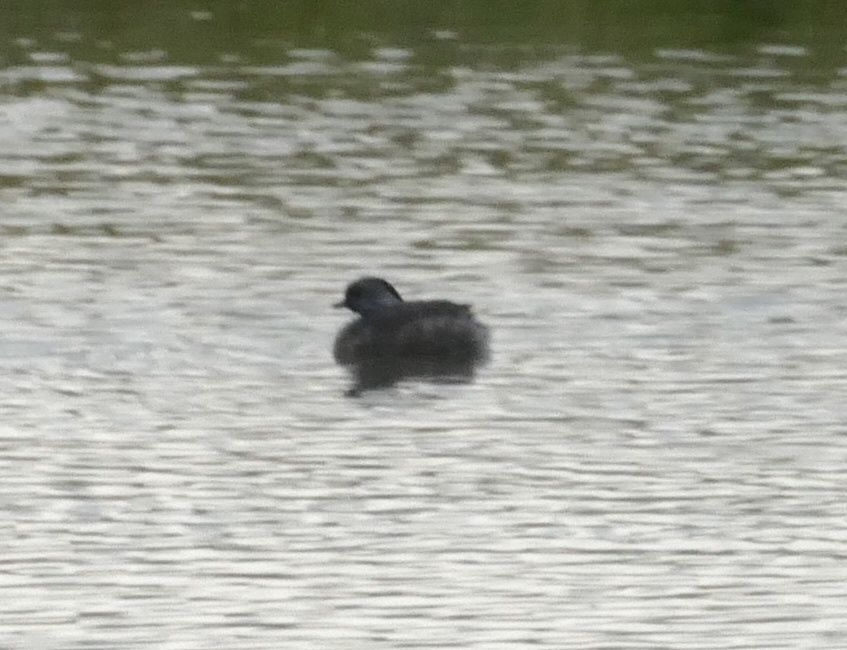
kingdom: Animalia
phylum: Chordata
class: Aves
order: Podicipediformes
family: Podicipedidae
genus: Poliocephalus
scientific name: Poliocephalus poliocephalus
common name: Hoary-headed grebe
